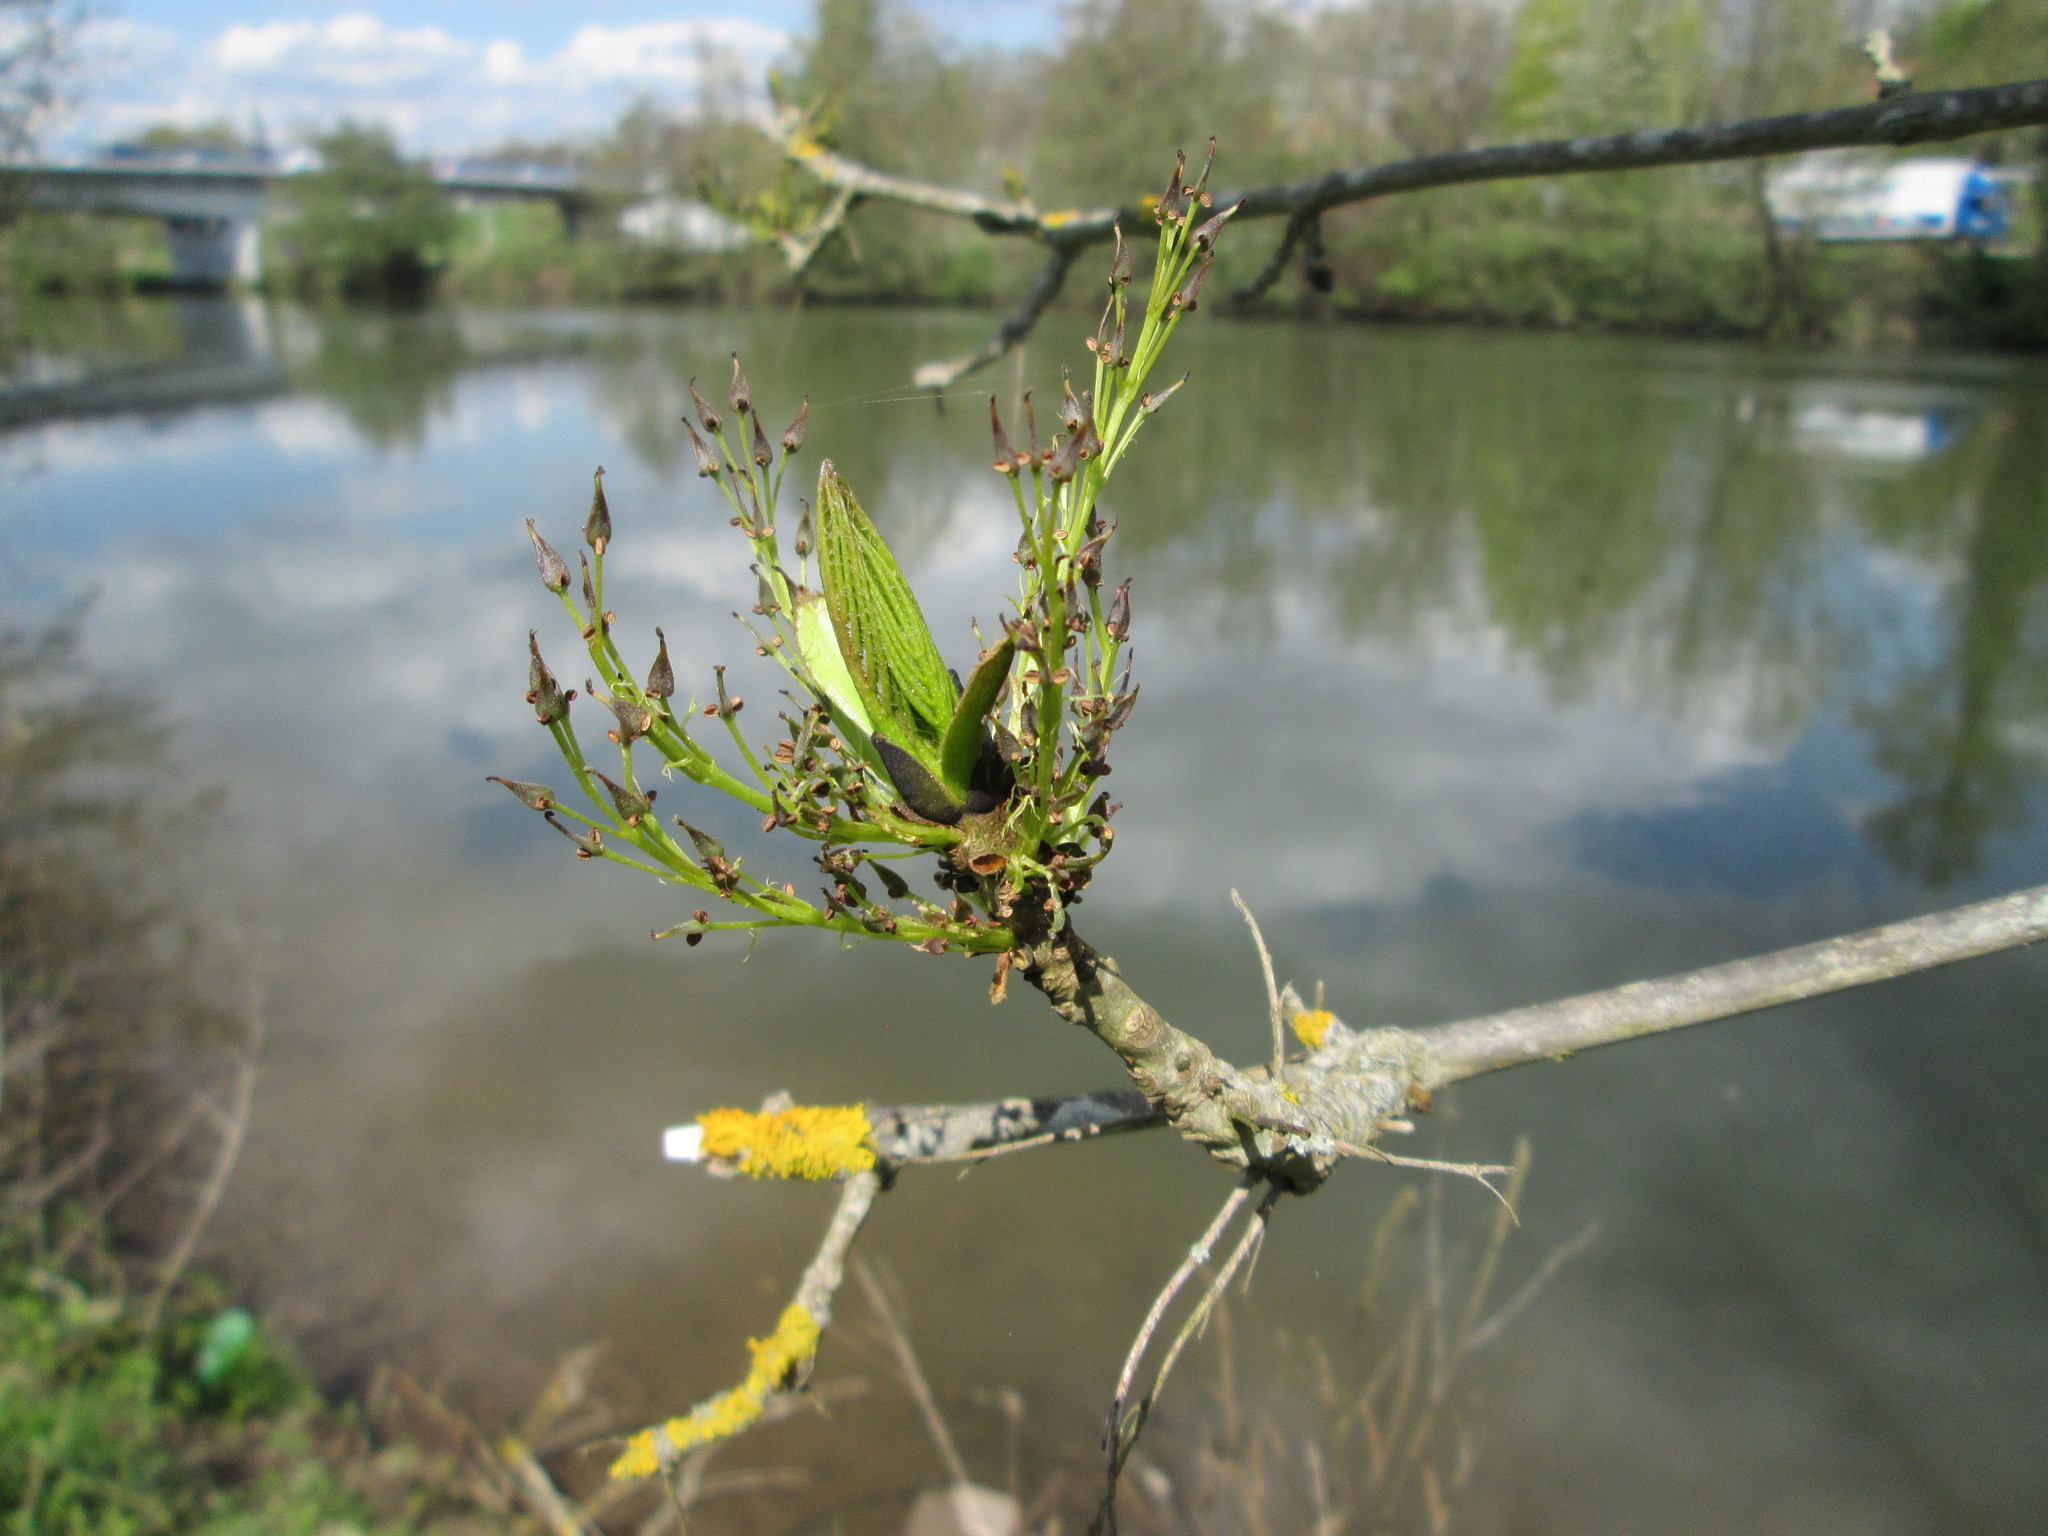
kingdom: Plantae
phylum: Tracheophyta
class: Magnoliopsida
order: Lamiales
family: Oleaceae
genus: Fraxinus
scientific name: Fraxinus excelsior
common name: European ash
